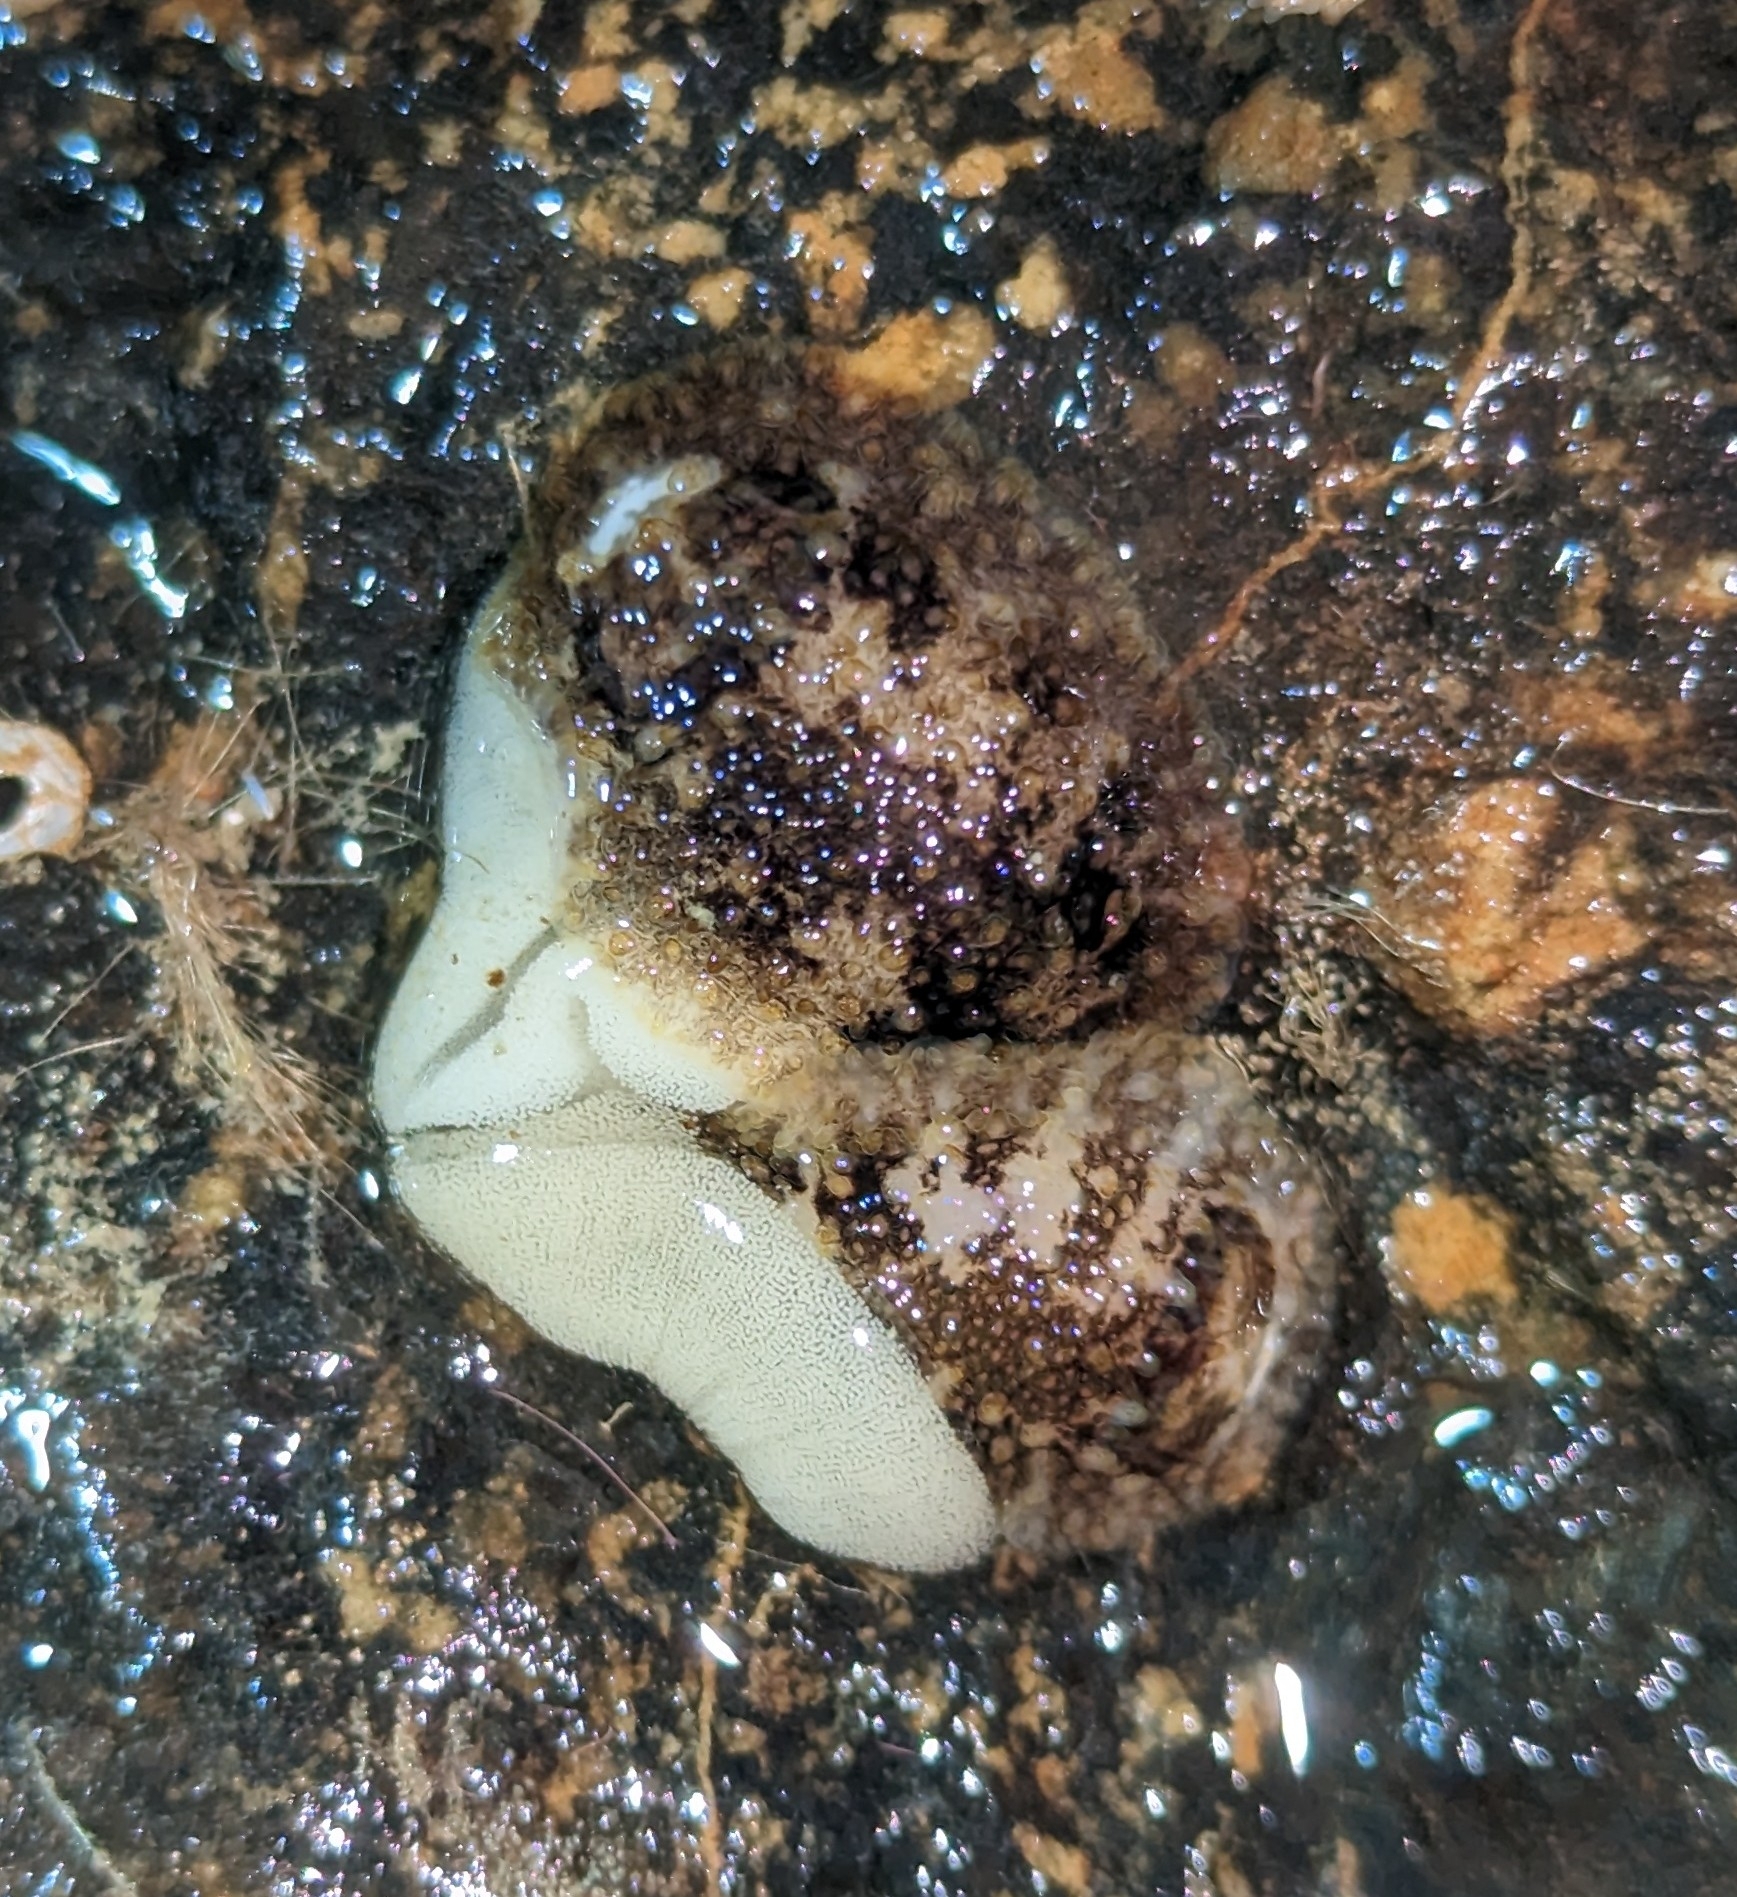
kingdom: Animalia
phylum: Mollusca
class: Gastropoda
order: Nudibranchia
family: Onchidorididae
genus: Onchidoris
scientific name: Onchidoris bilamellata
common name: Barnacle-eating onchidoris
